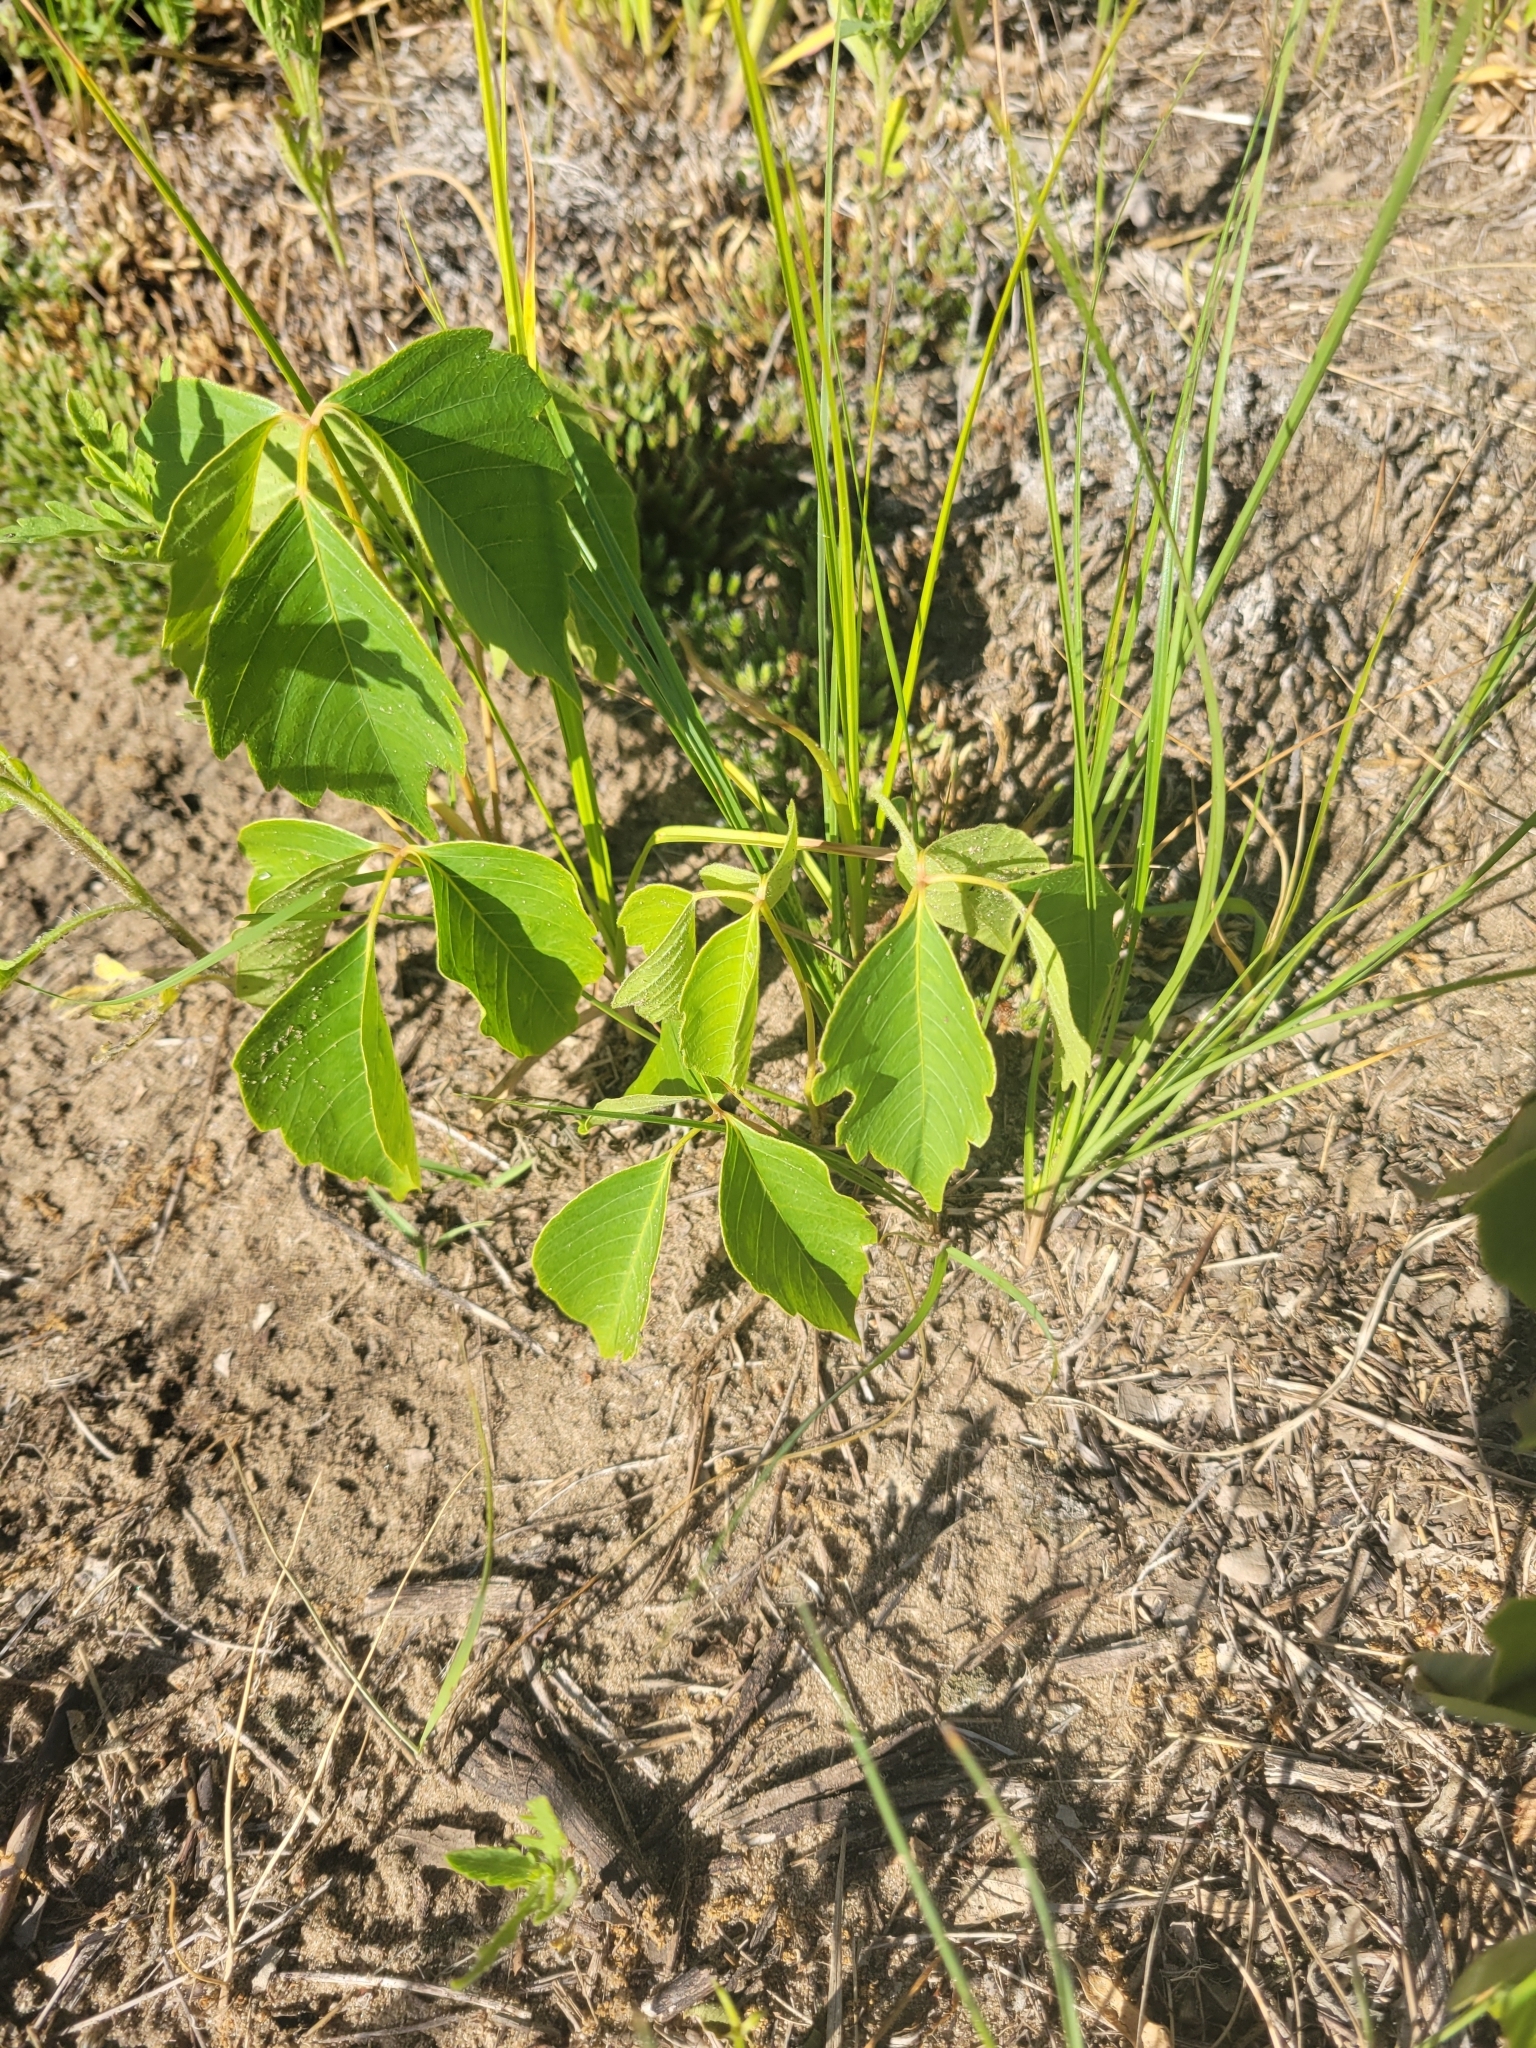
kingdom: Plantae
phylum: Tracheophyta
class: Magnoliopsida
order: Sapindales
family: Anacardiaceae
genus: Toxicodendron
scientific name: Toxicodendron rydbergii
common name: Rydberg's poison-ivy
